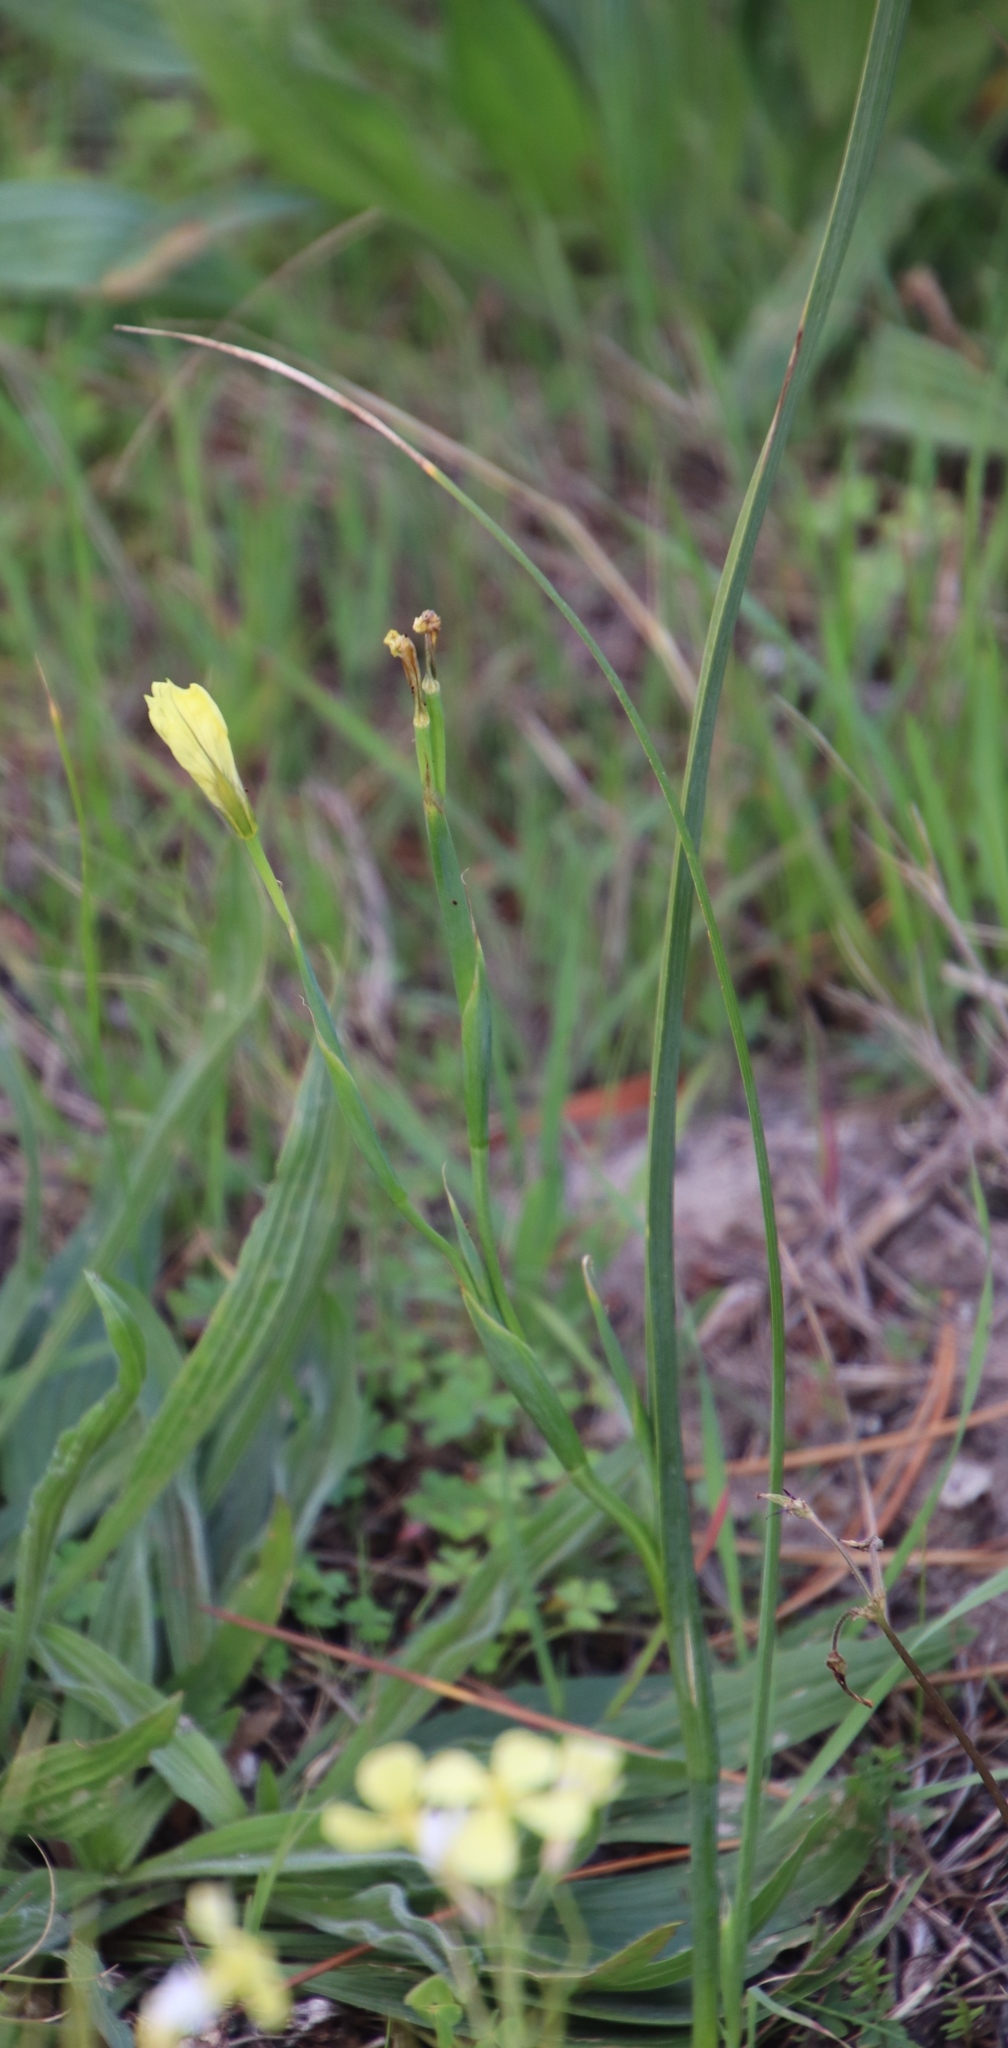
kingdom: Plantae
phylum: Tracheophyta
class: Liliopsida
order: Asparagales
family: Iridaceae
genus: Moraea
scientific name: Moraea collina
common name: Cape-tulip
